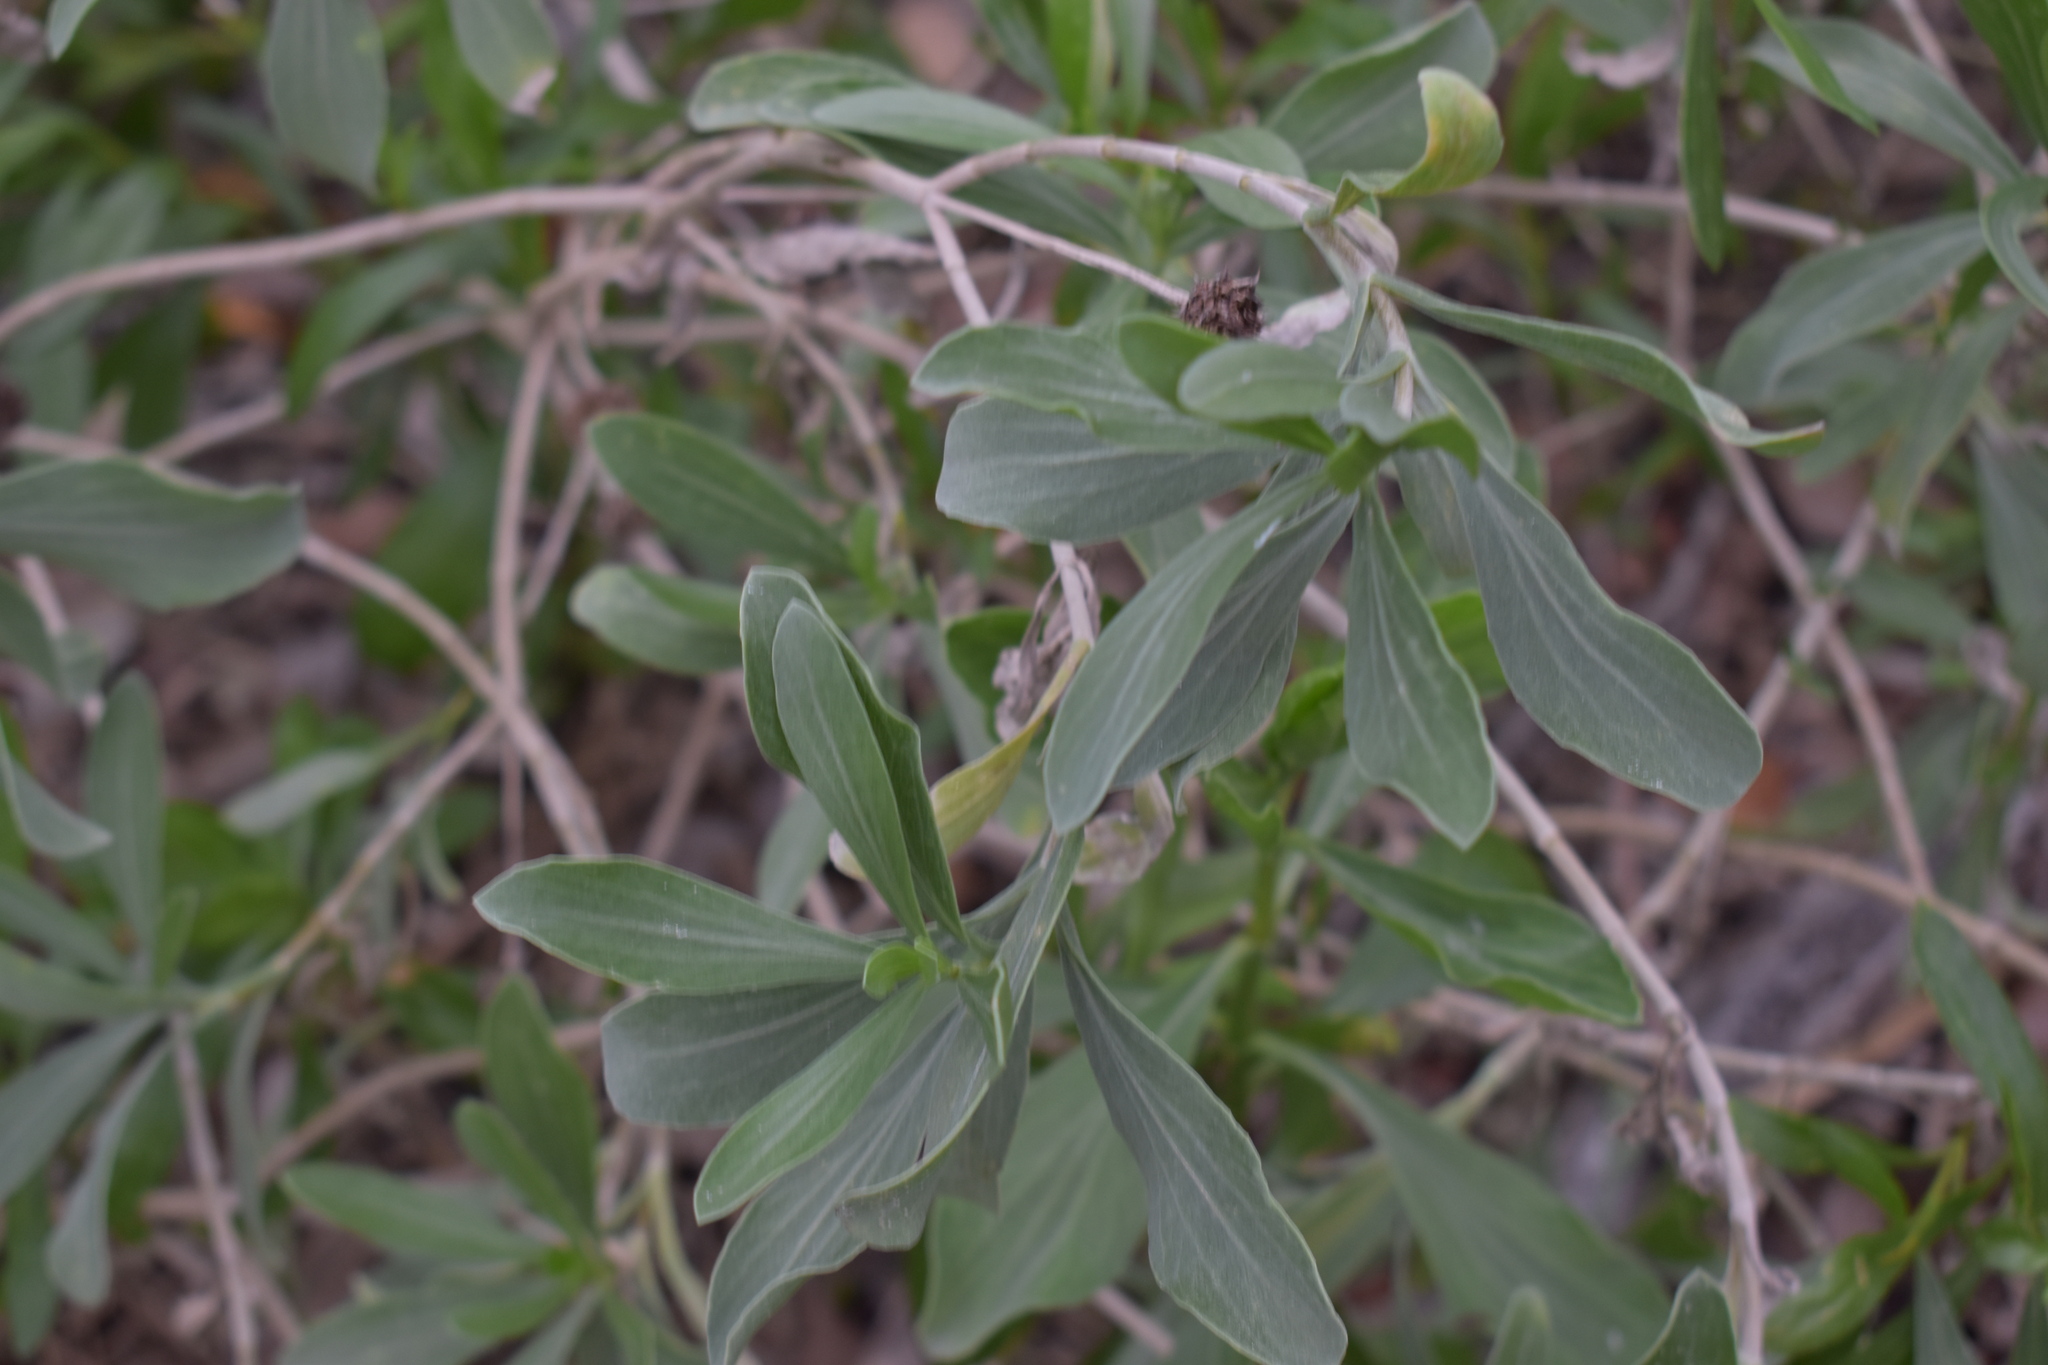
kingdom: Plantae
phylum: Tracheophyta
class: Magnoliopsida
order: Asterales
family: Asteraceae
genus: Borrichia
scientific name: Borrichia frutescens
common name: Sea oxeye
